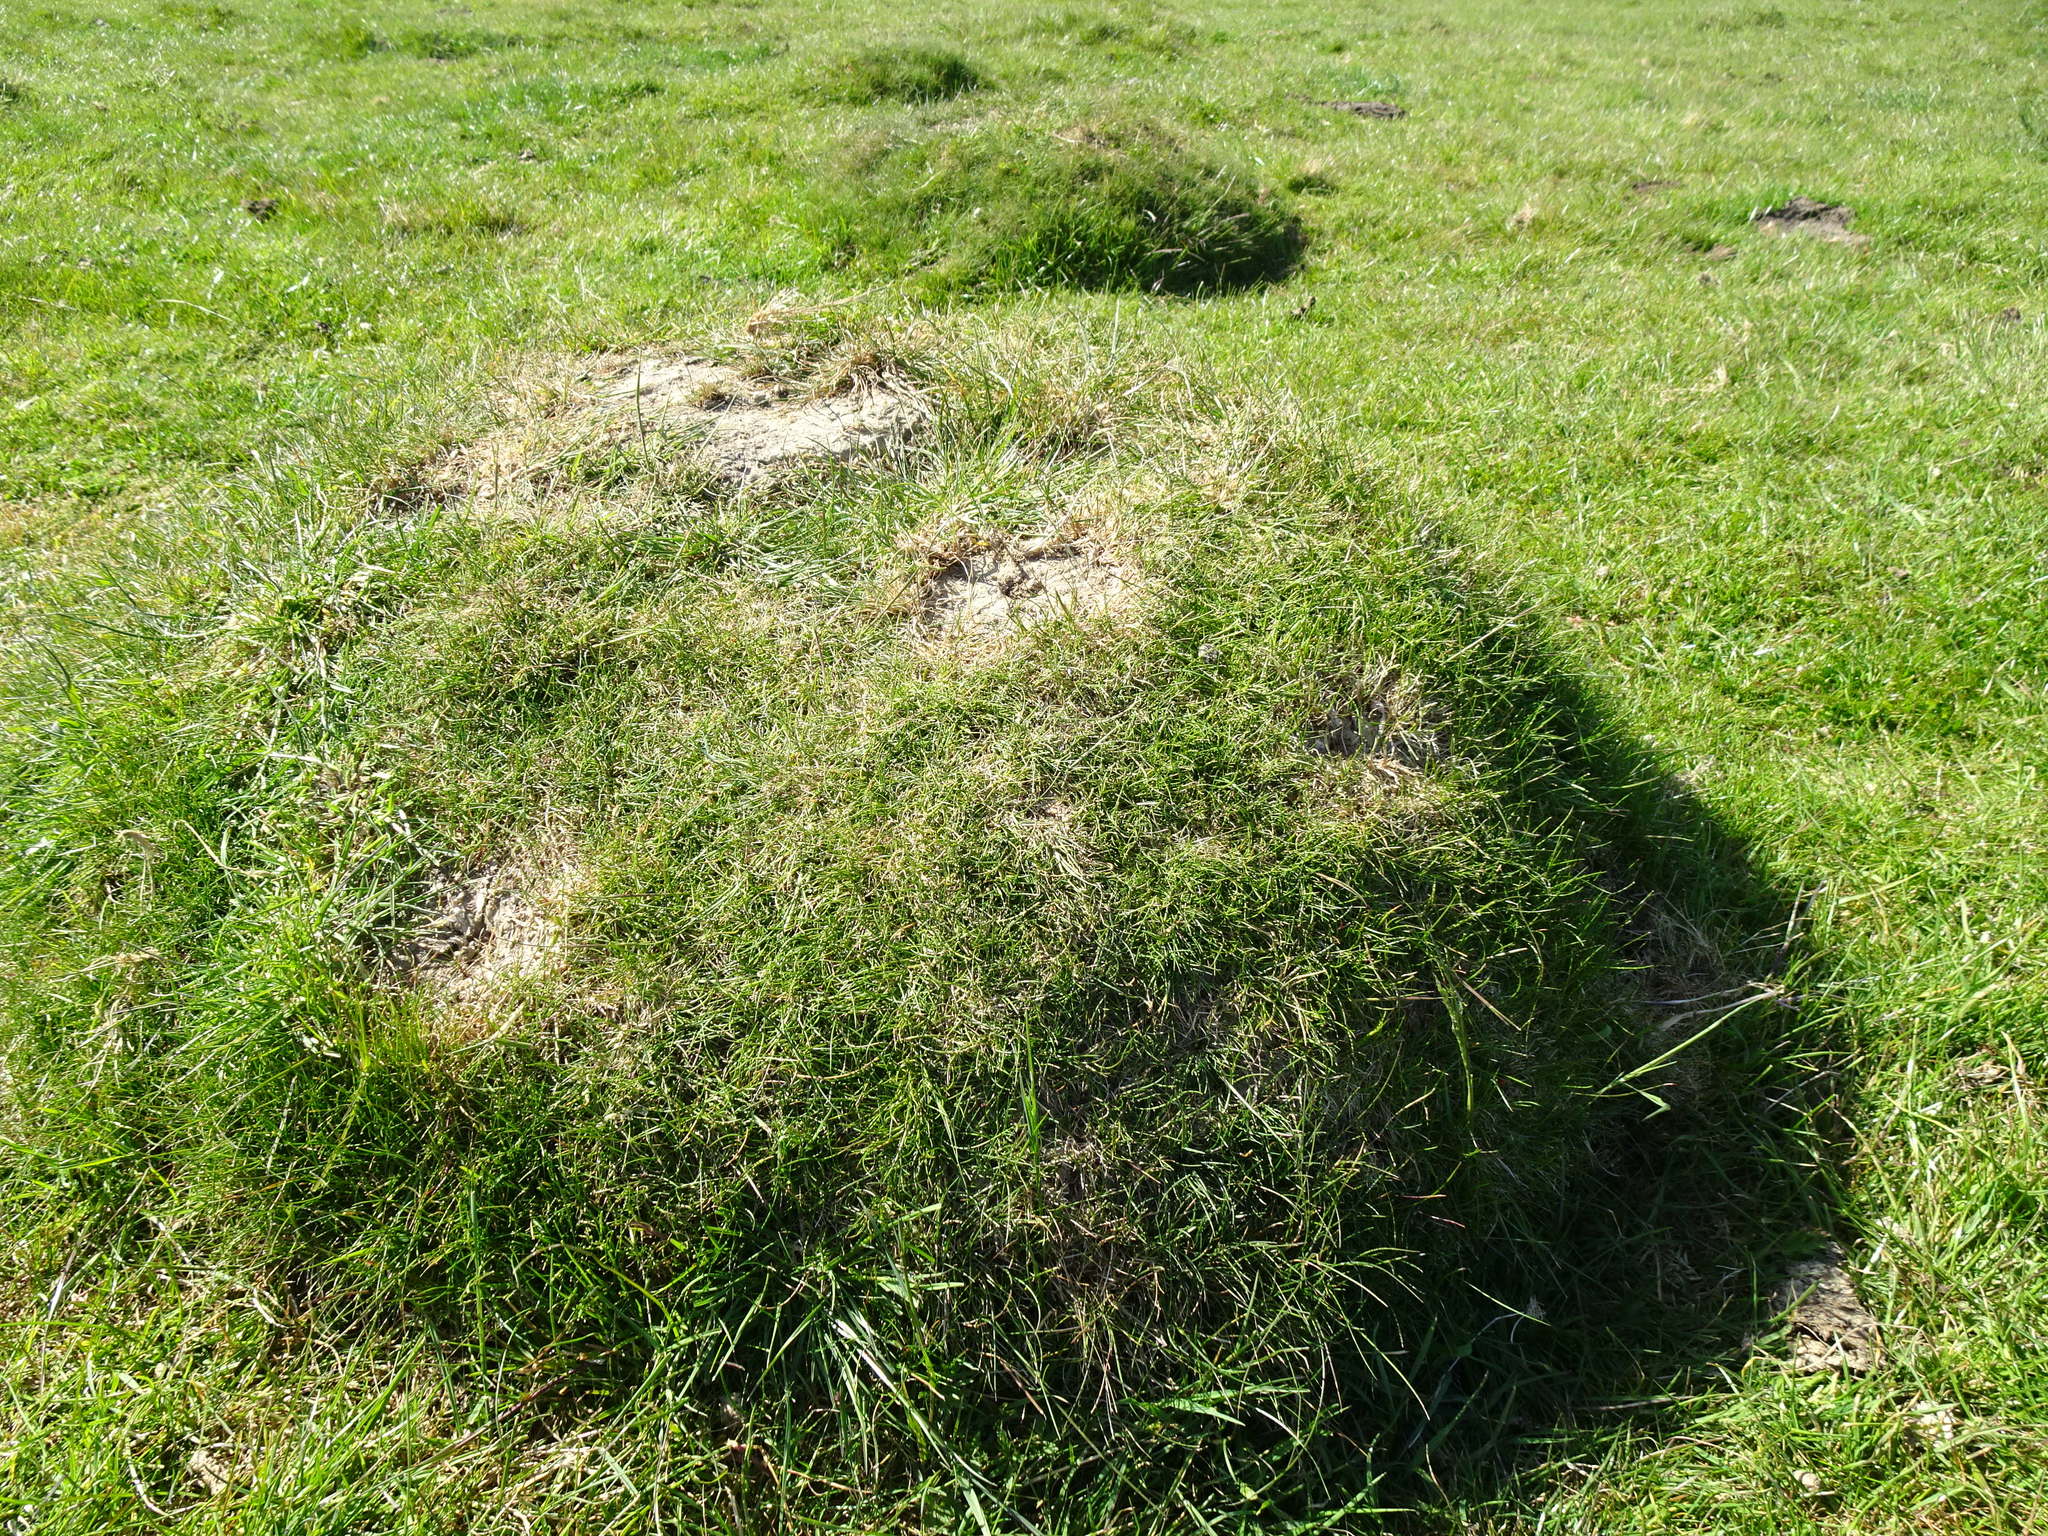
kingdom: Animalia
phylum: Arthropoda
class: Insecta
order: Hymenoptera
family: Formicidae
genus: Lasius
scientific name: Lasius flavus
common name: Blond field ant
